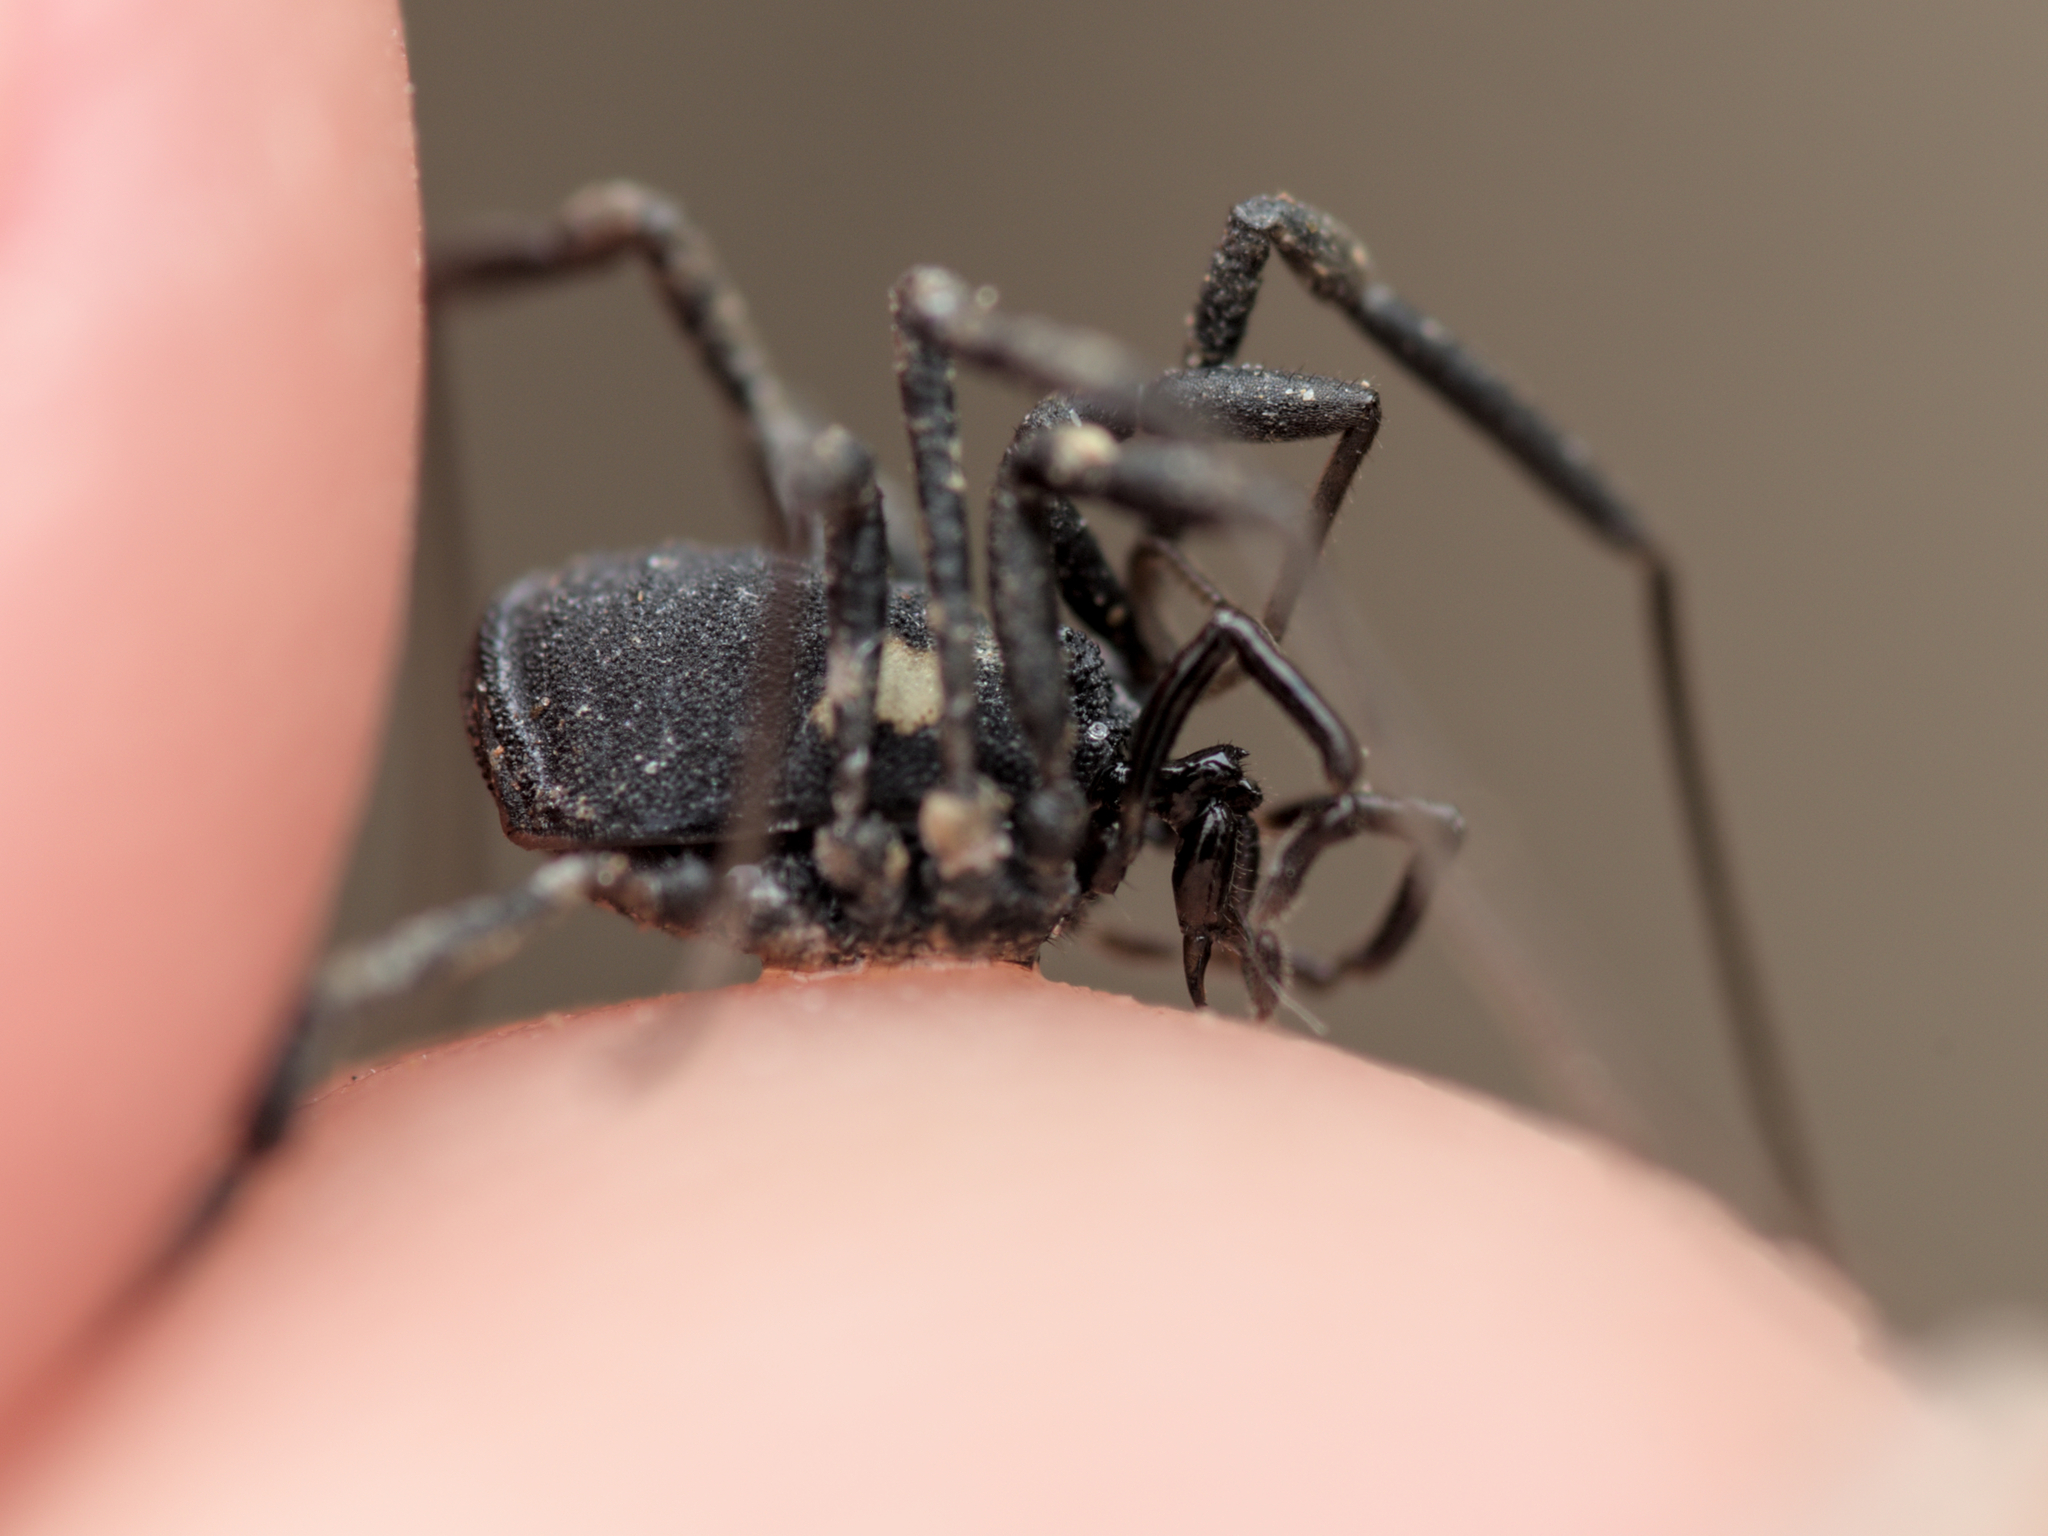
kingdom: Animalia
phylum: Arthropoda
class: Arachnida
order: Opiliones
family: Nemastomatidae
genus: Nemastoma
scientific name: Nemastoma bimaculatum
